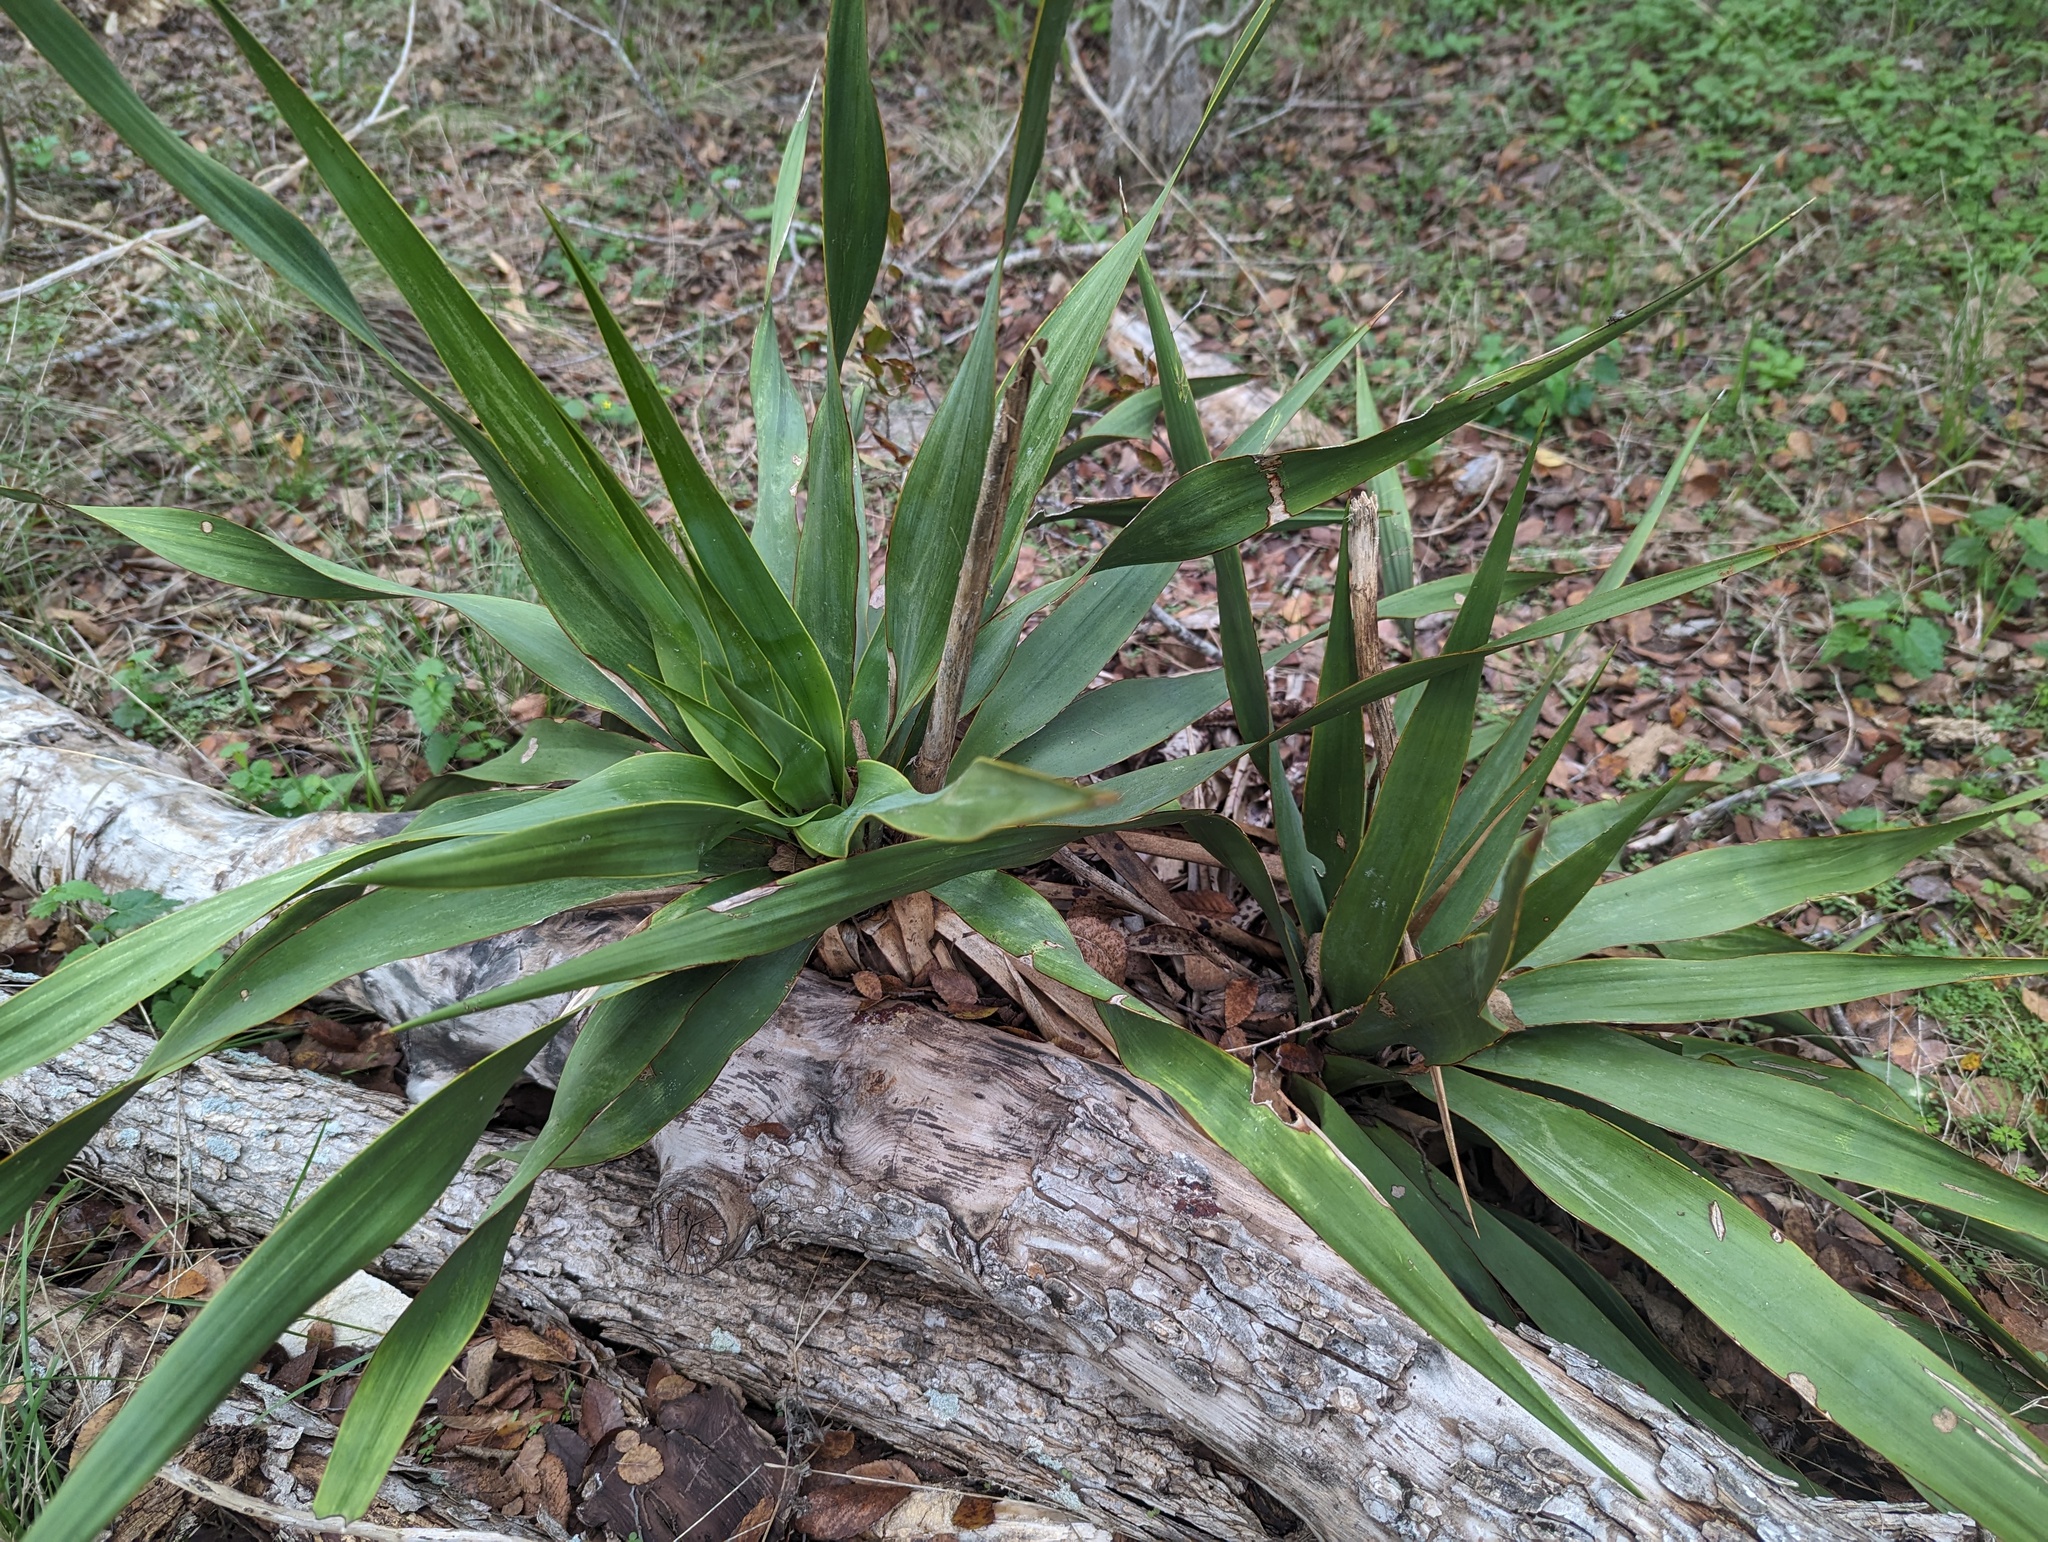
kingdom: Plantae
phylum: Tracheophyta
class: Liliopsida
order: Asparagales
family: Asparagaceae
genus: Yucca
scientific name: Yucca rupicola
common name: Twisted-leaf spanish-dagger
